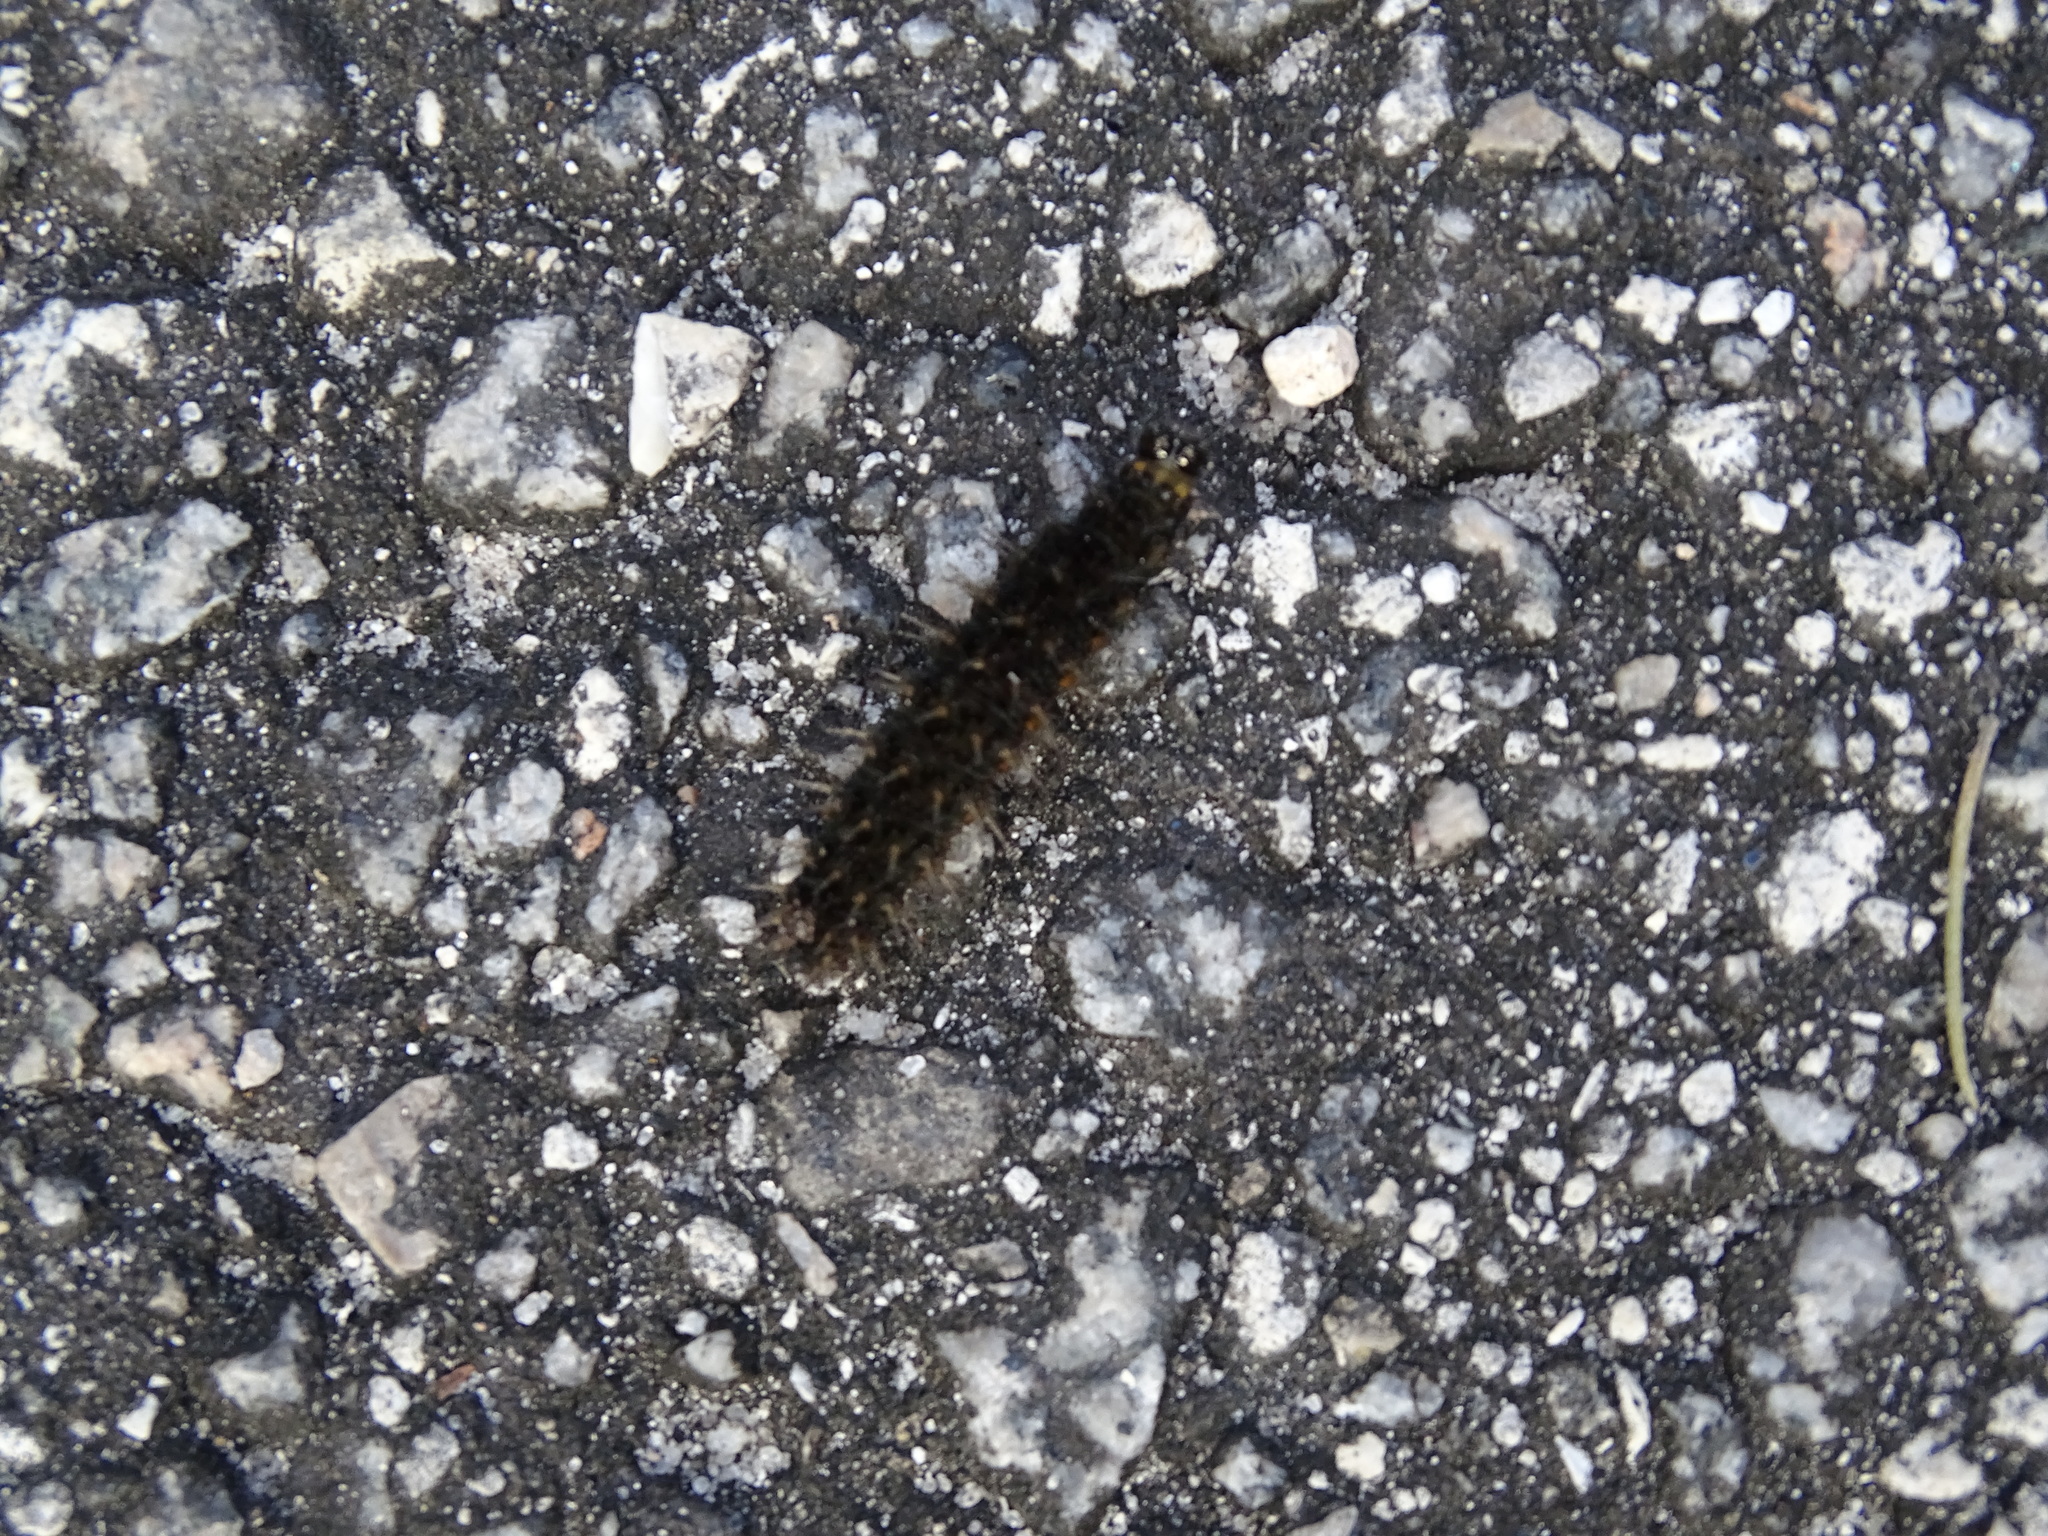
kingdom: Animalia
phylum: Arthropoda
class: Insecta
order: Lepidoptera
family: Nymphalidae
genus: Anartia
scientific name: Anartia jatrophae
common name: White peacock
